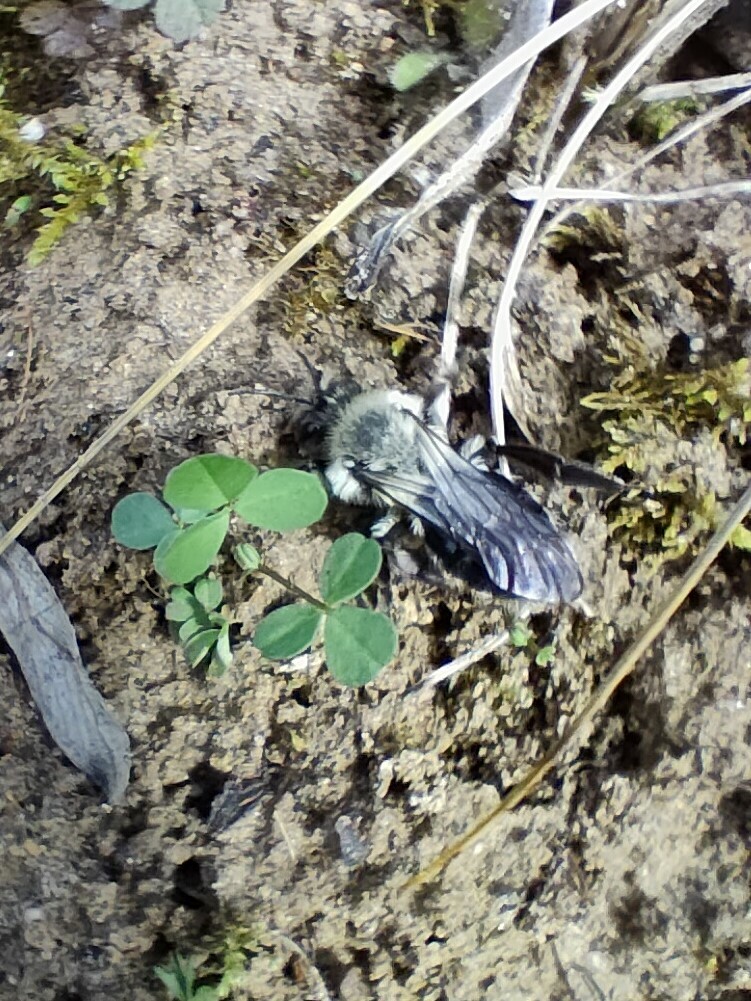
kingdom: Animalia
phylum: Arthropoda
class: Insecta
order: Hymenoptera
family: Andrenidae
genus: Andrena
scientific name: Andrena vaga
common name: Grey-backed mining bee
